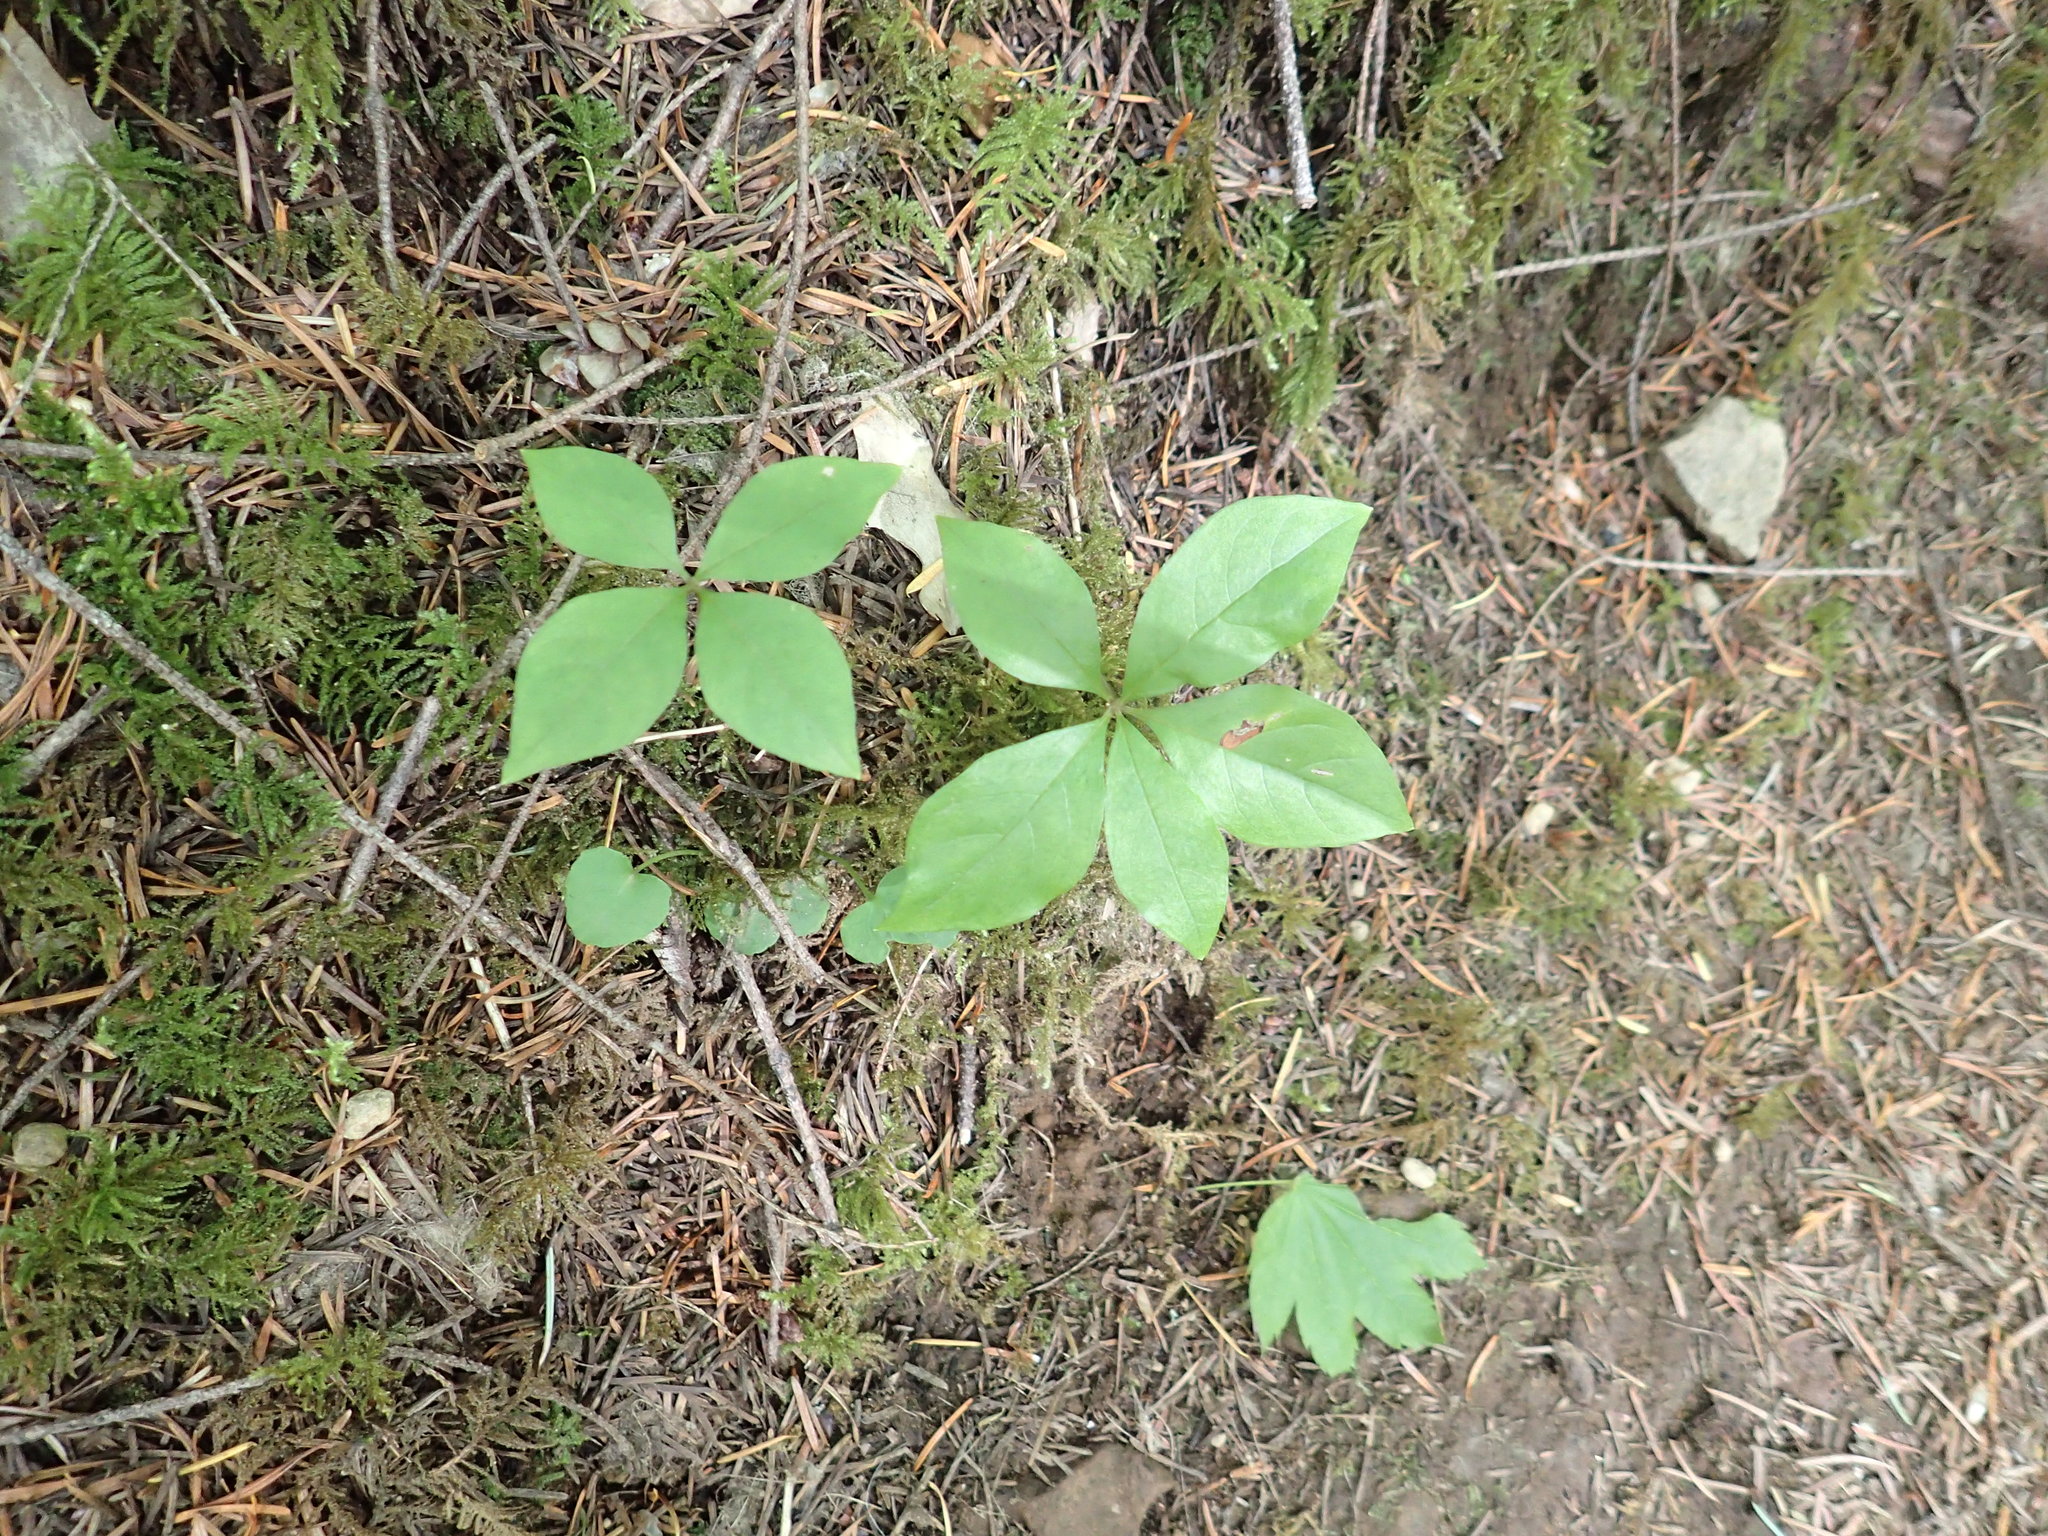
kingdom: Plantae
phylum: Tracheophyta
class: Magnoliopsida
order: Ericales
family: Primulaceae
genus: Lysimachia
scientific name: Lysimachia latifolia
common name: Pacific starflower
